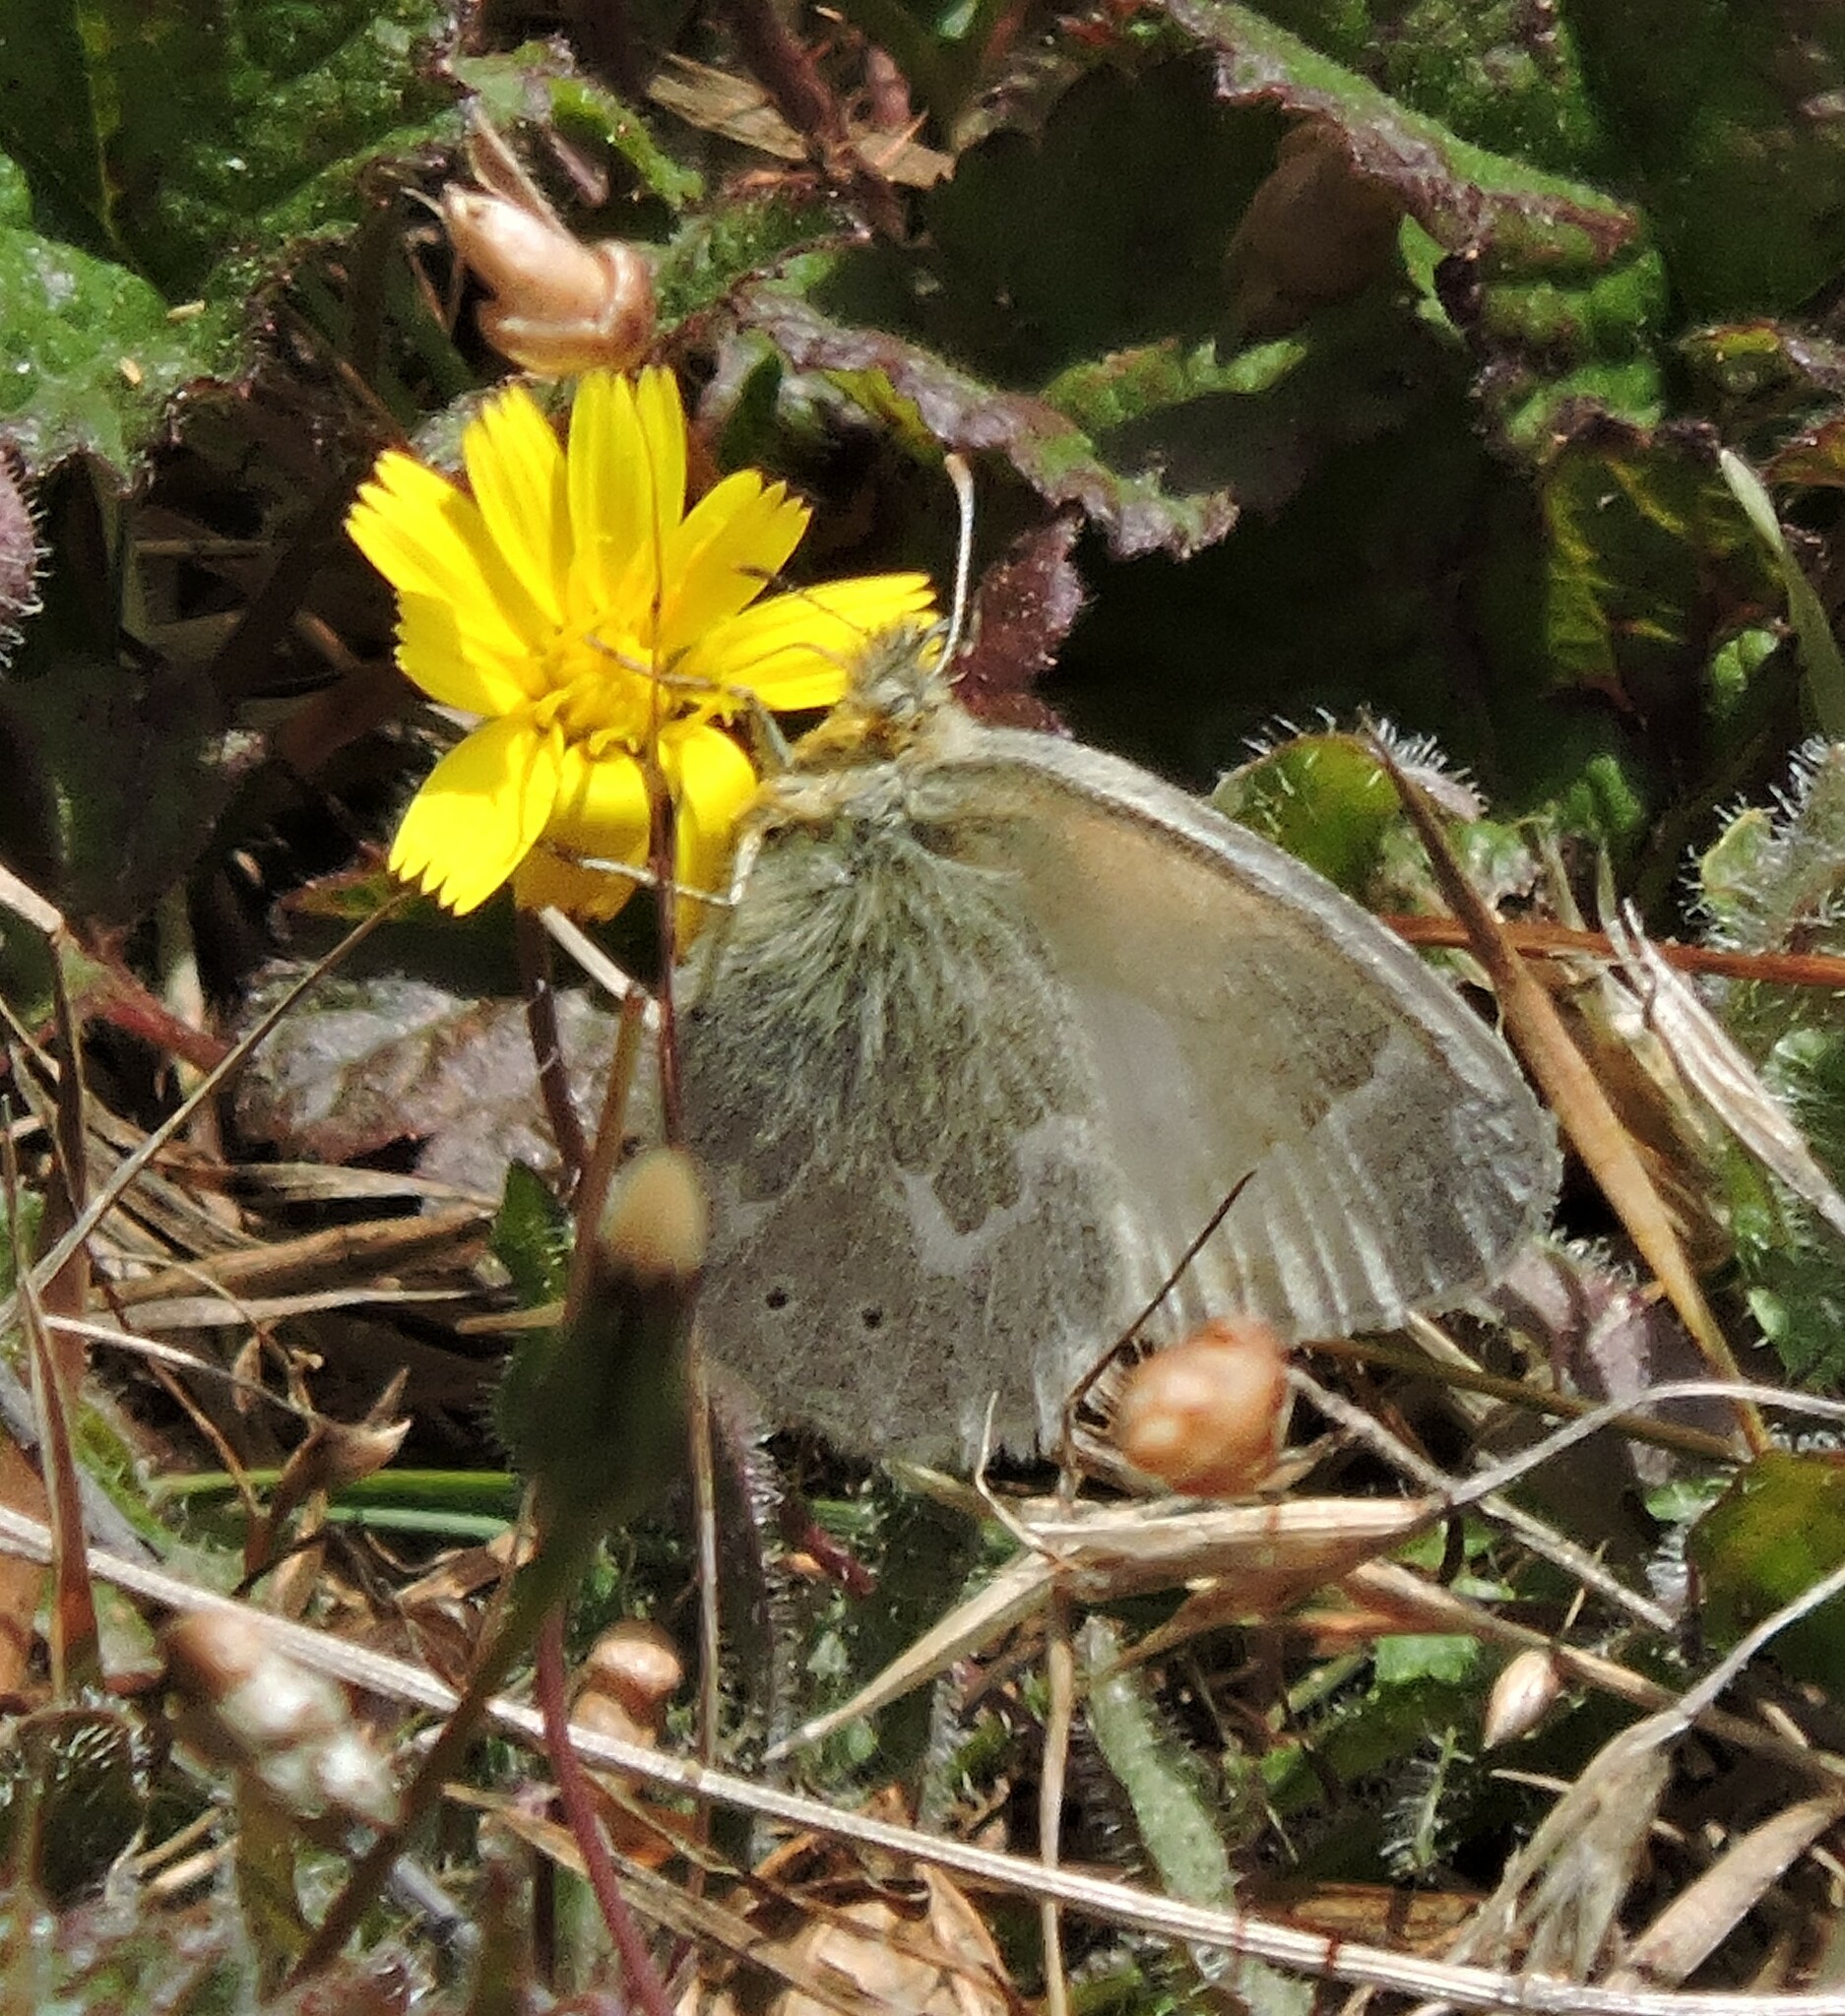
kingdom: Animalia
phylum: Arthropoda
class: Insecta
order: Lepidoptera
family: Nymphalidae
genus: Coenonympha
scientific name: Coenonympha california
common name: Common ringlet
